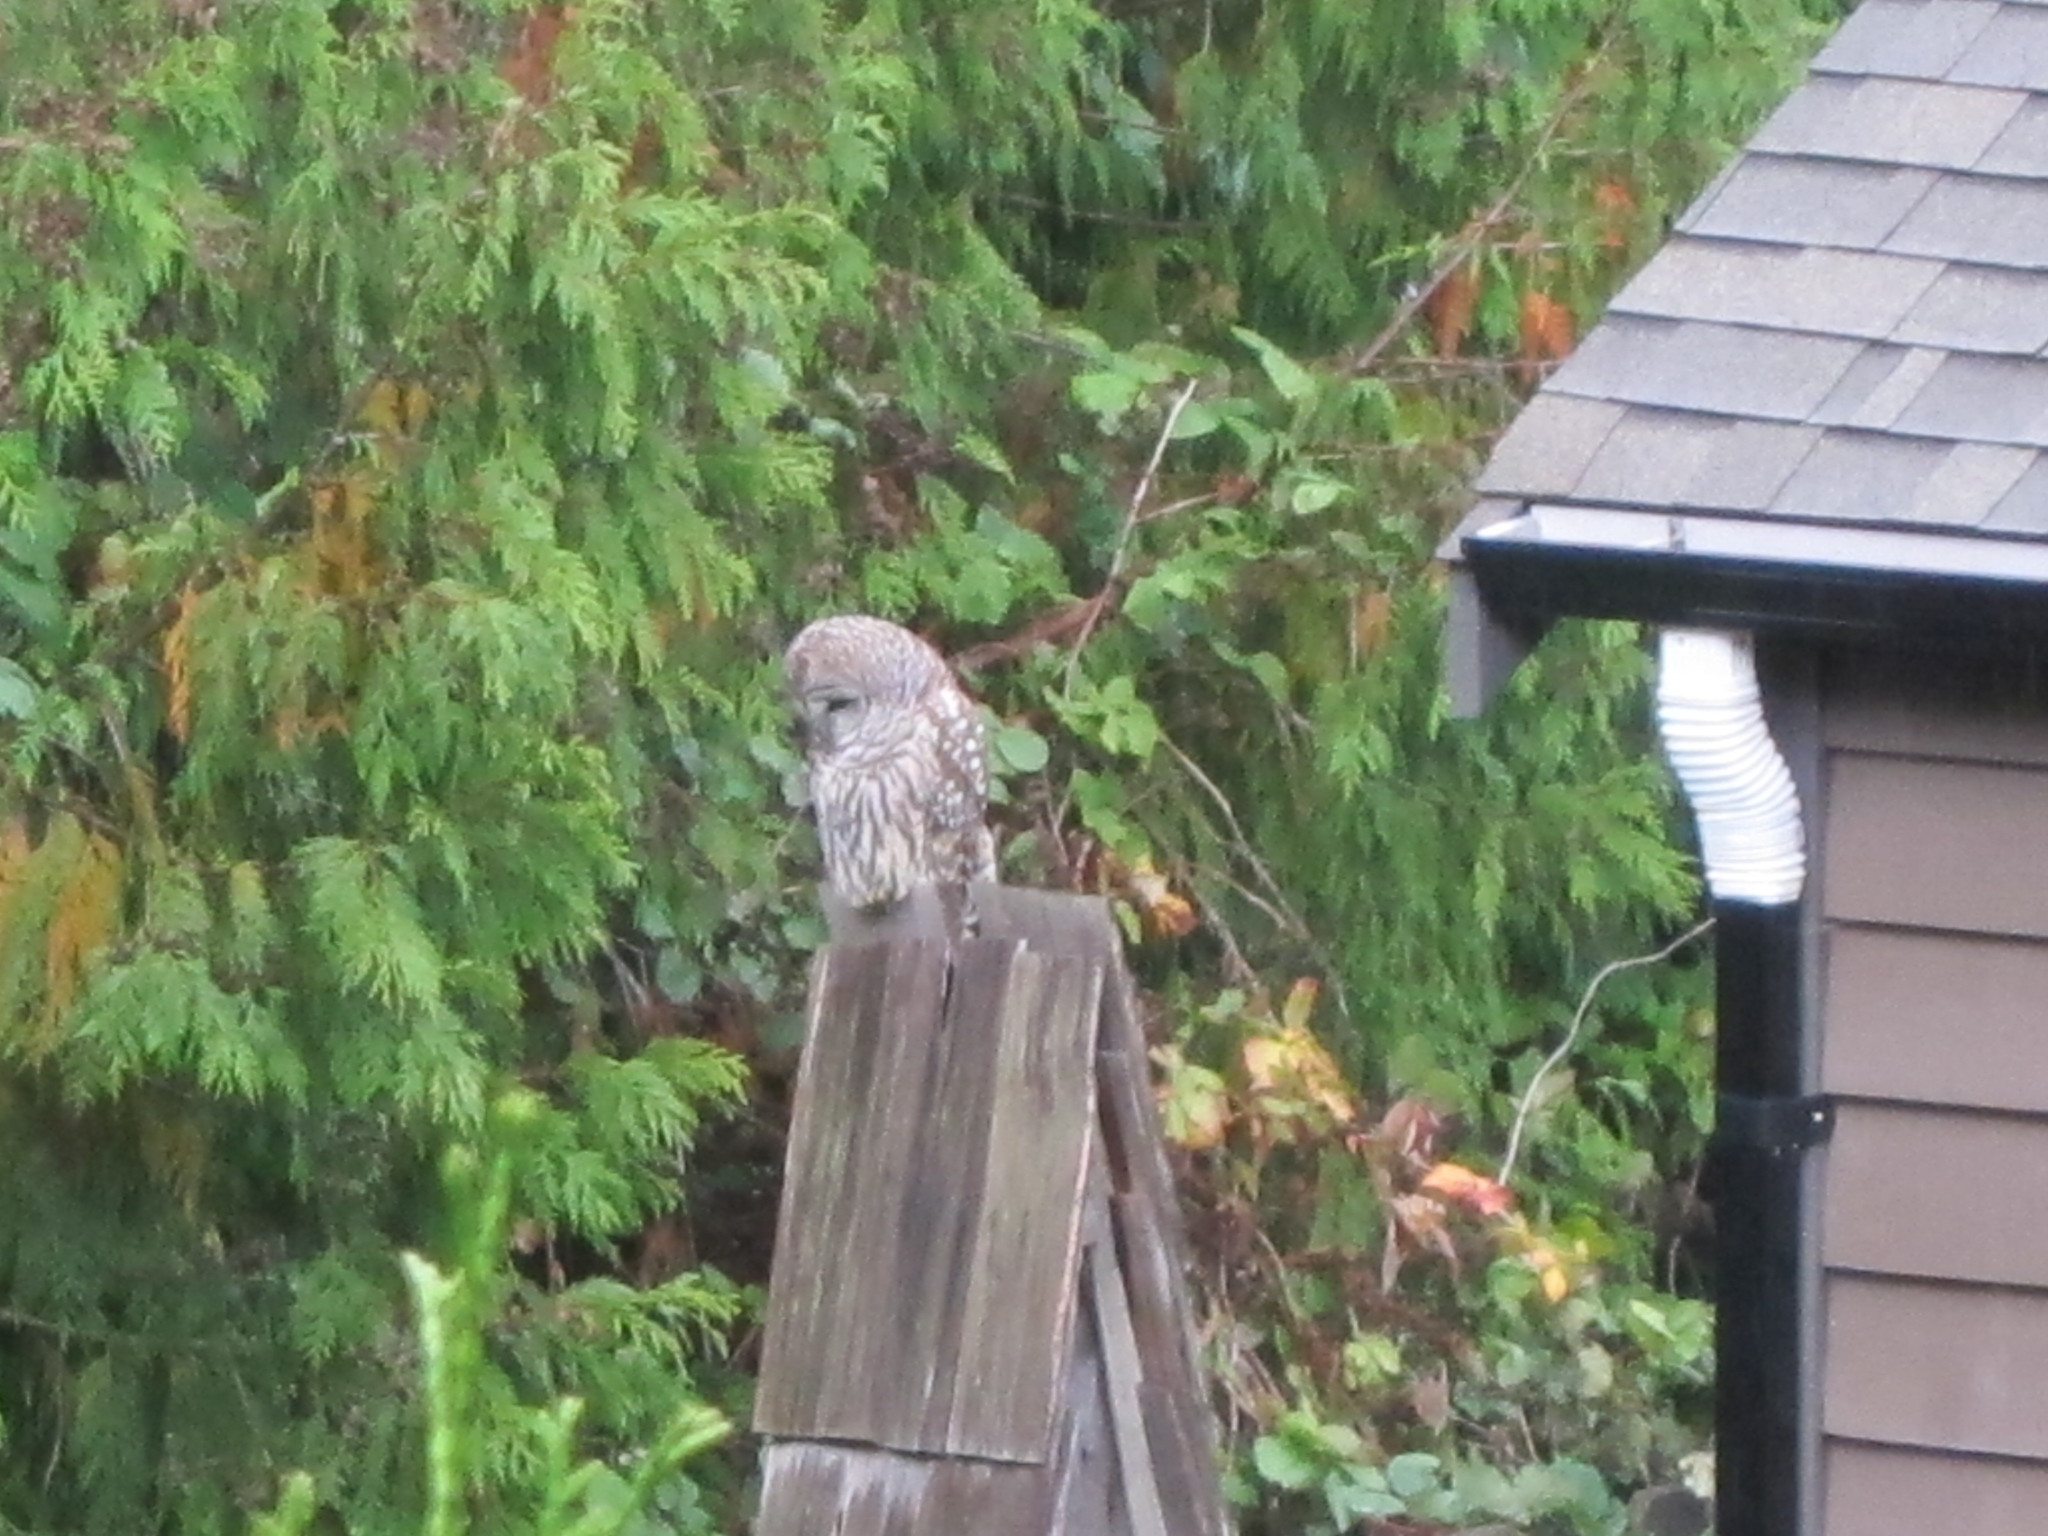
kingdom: Animalia
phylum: Chordata
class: Aves
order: Strigiformes
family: Strigidae
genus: Strix
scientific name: Strix varia
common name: Barred owl
